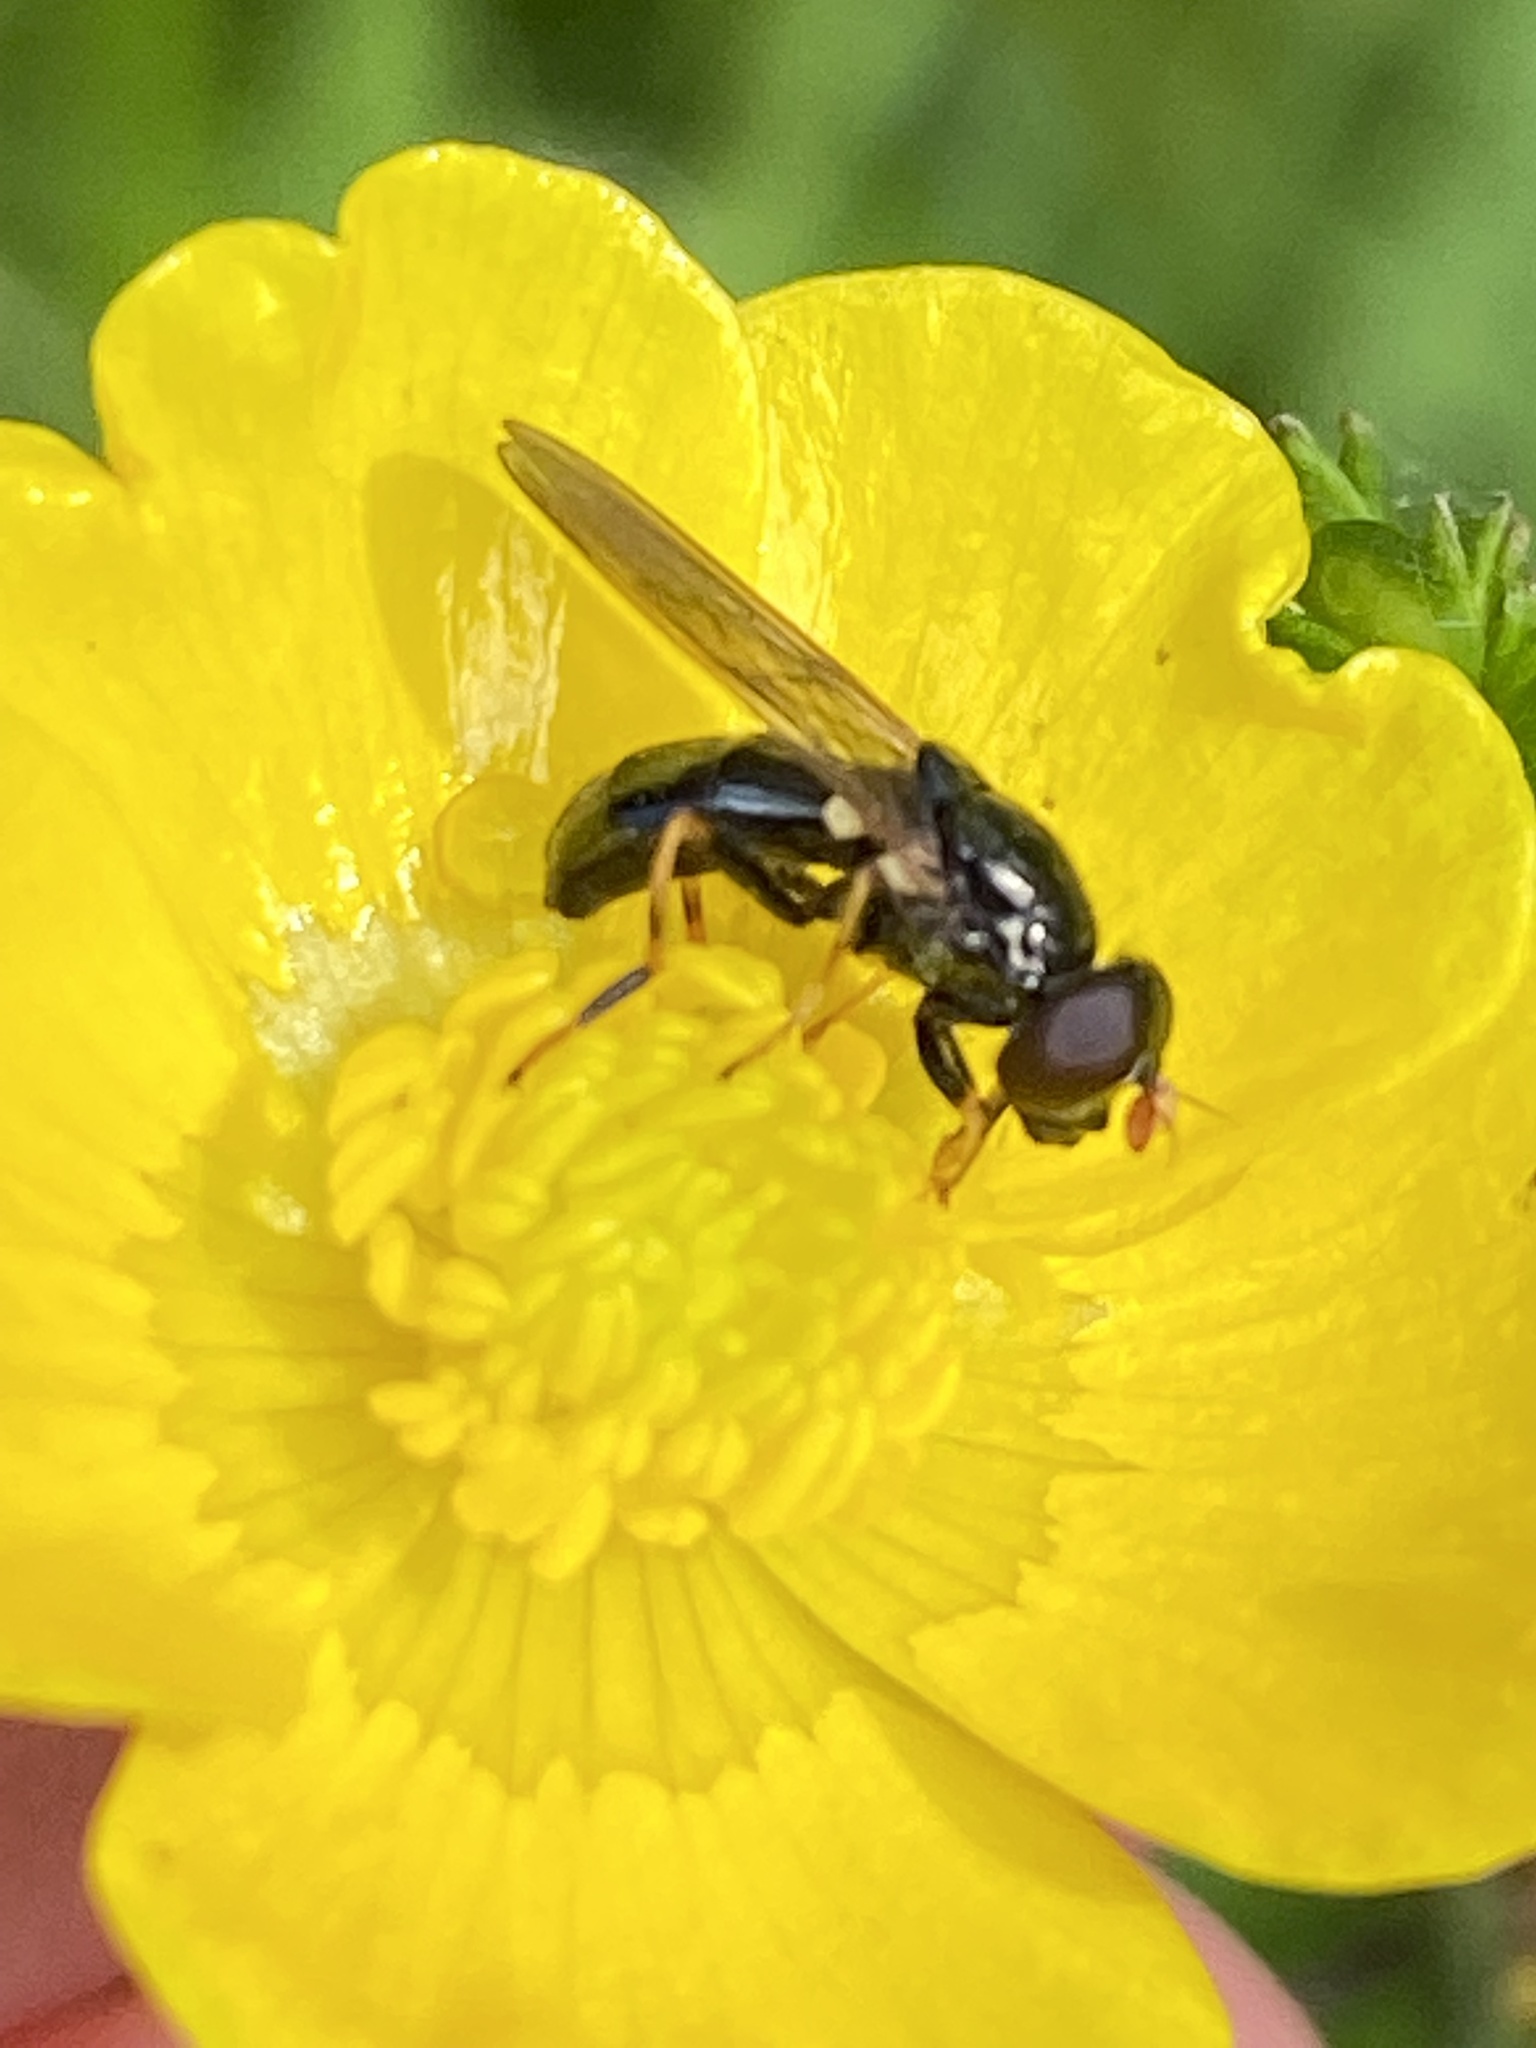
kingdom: Animalia
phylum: Arthropoda
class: Insecta
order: Diptera
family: Syrphidae
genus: Cheilosia
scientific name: Cheilosia pagana
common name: Hover fly
